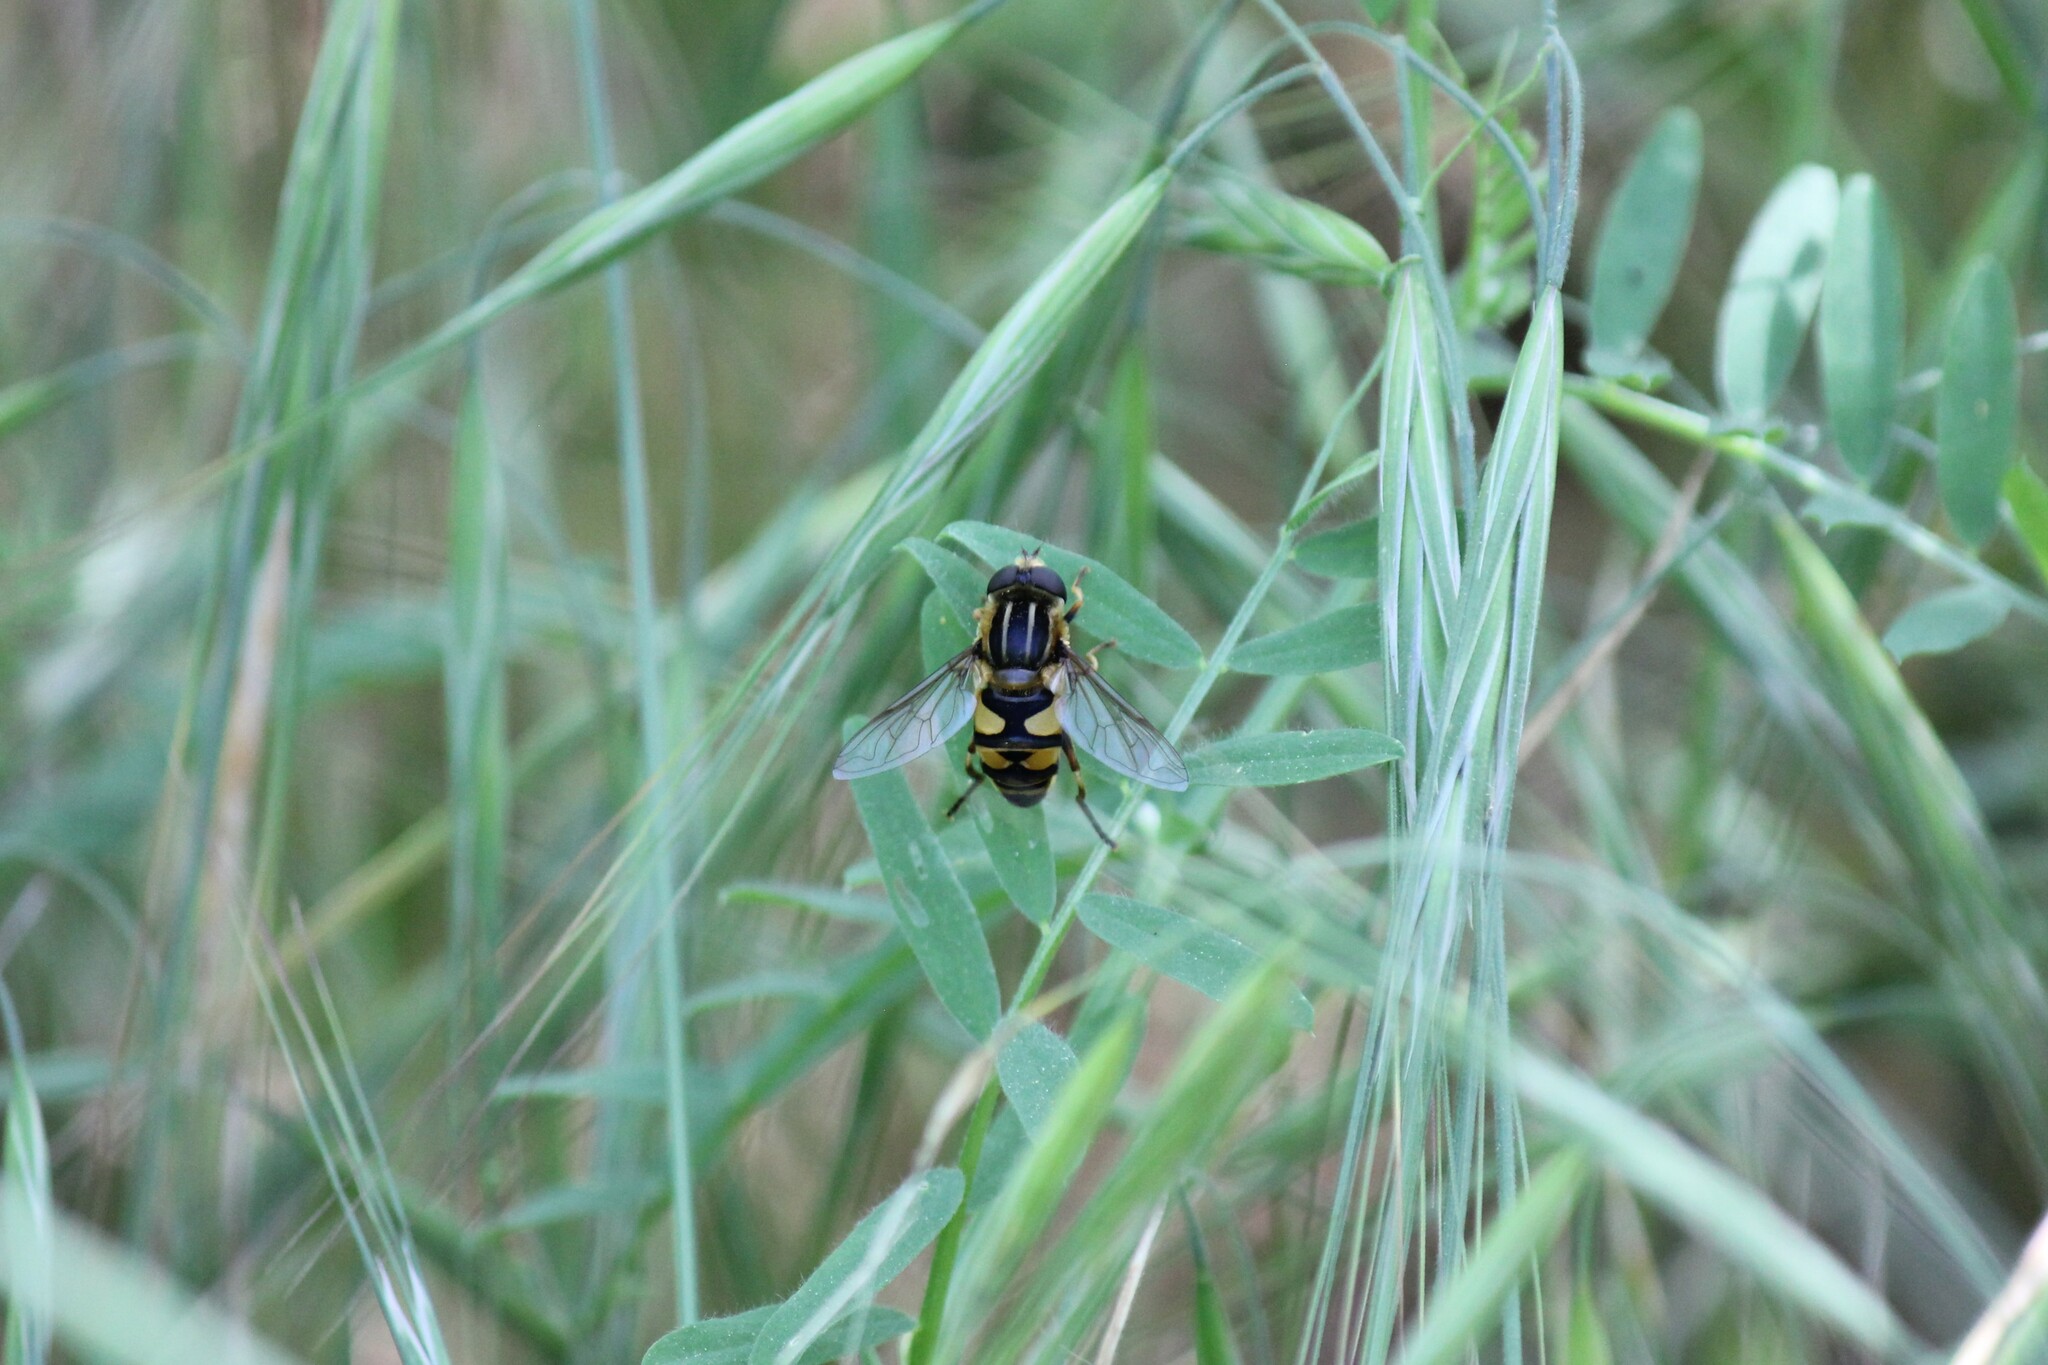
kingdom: Animalia
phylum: Arthropoda
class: Insecta
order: Diptera
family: Syrphidae
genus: Helophilus
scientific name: Helophilus fasciatus
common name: Narrow-headed marsh fly
